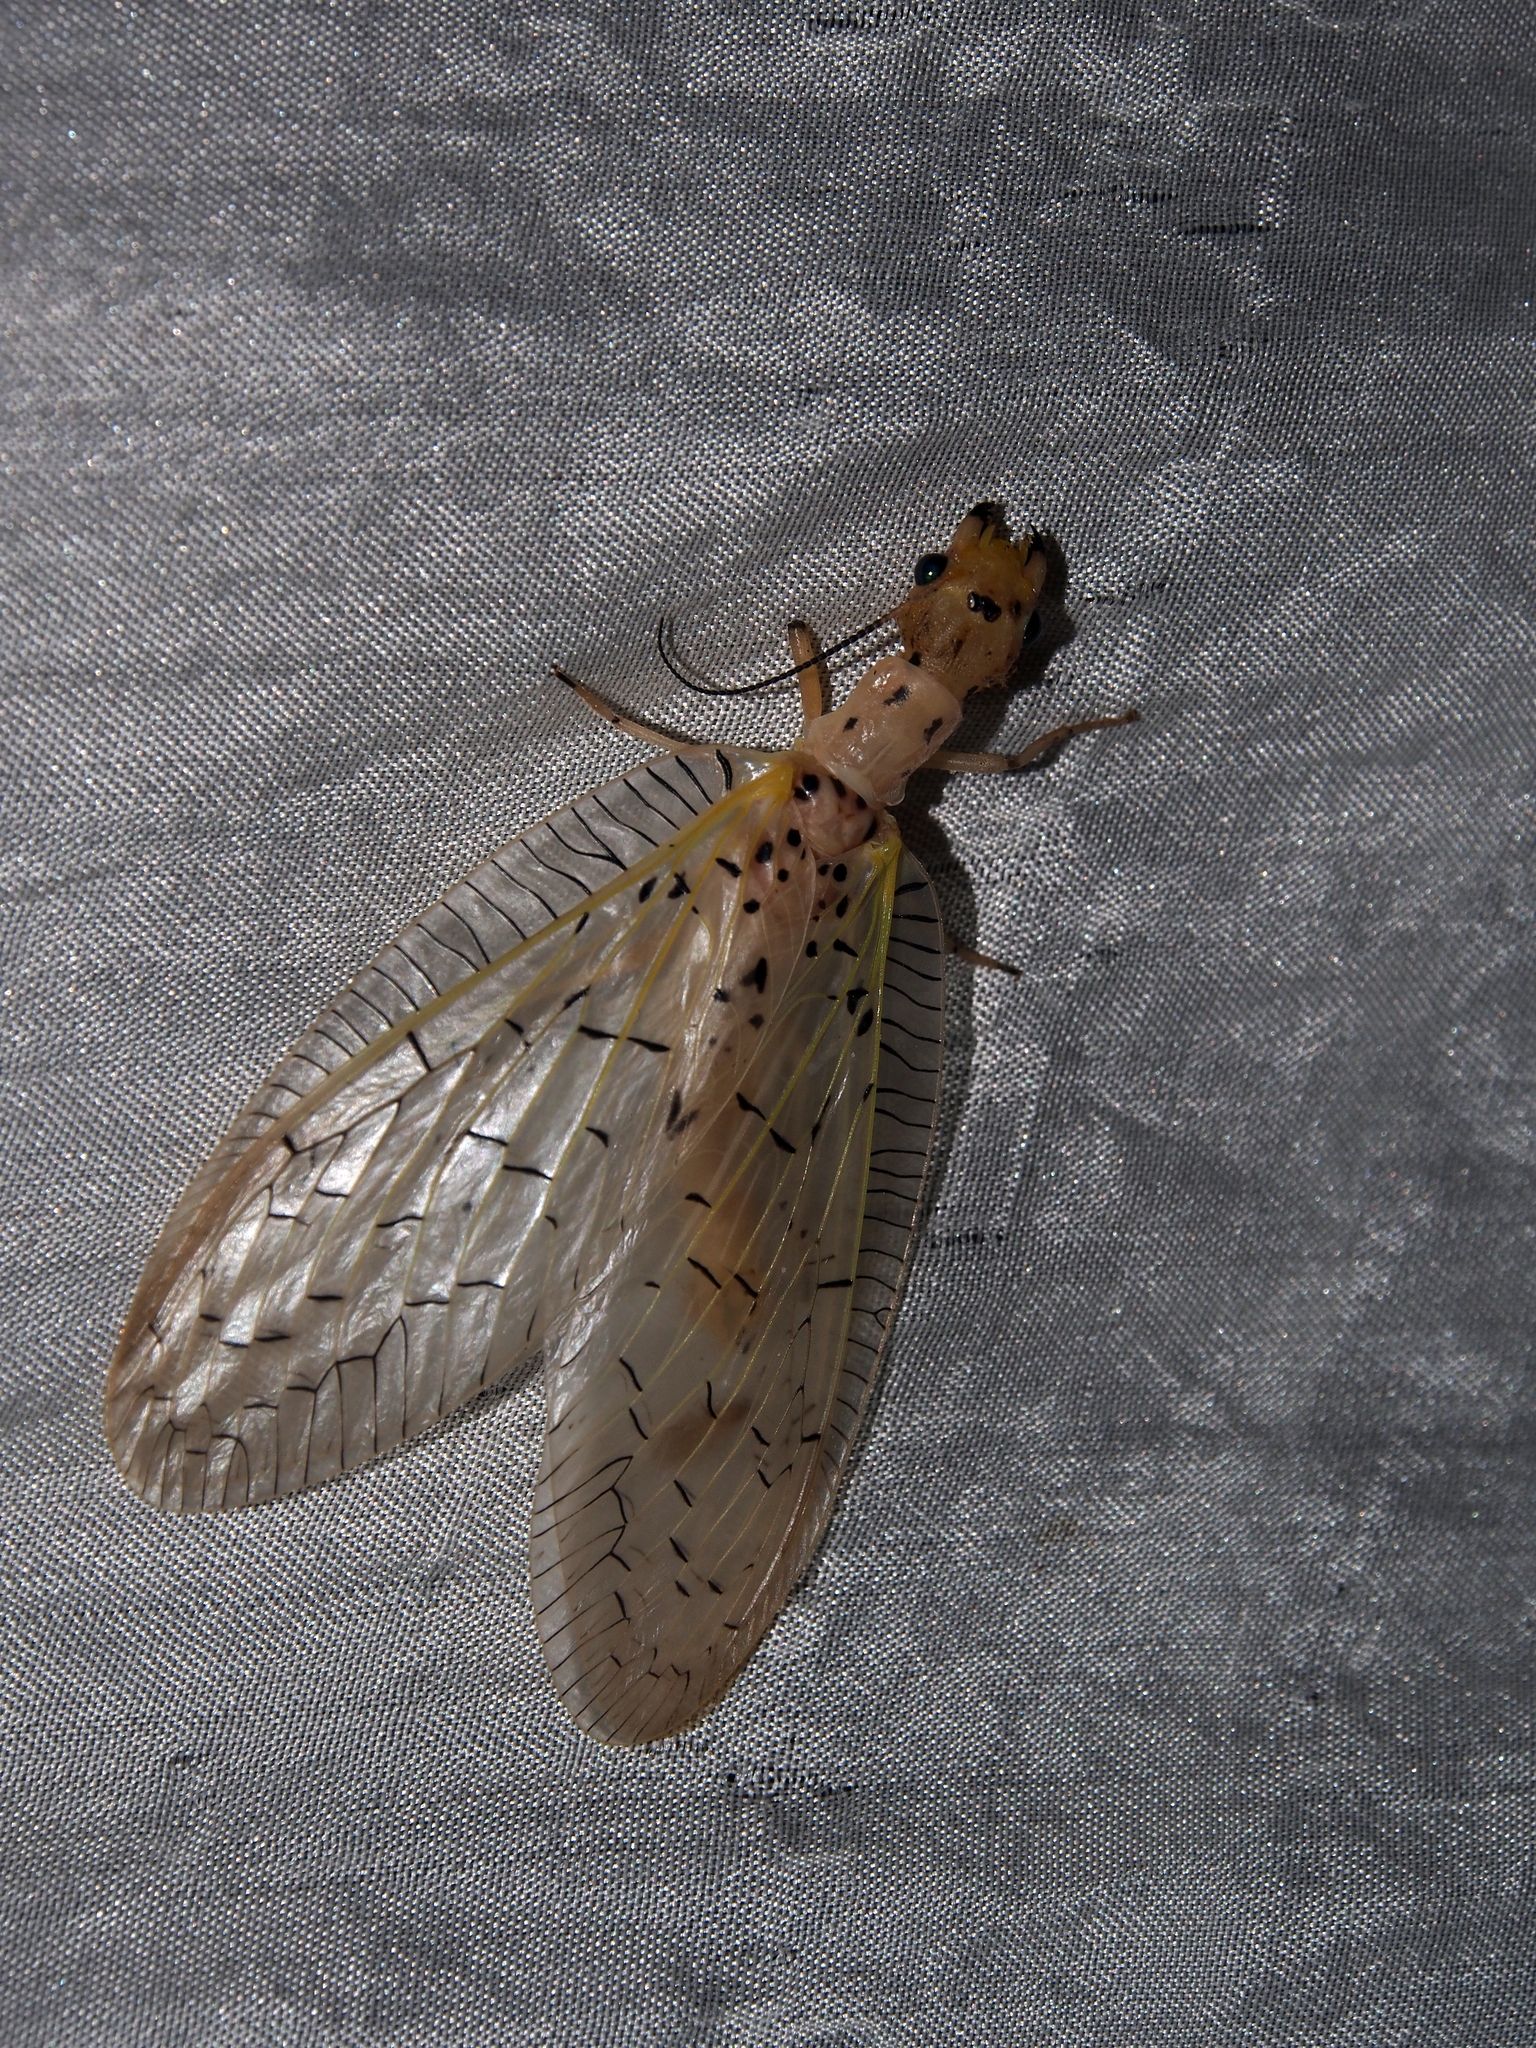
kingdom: Animalia
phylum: Arthropoda
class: Insecta
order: Megaloptera
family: Corydalidae
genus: Chloronia
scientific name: Chloronia mexicana
